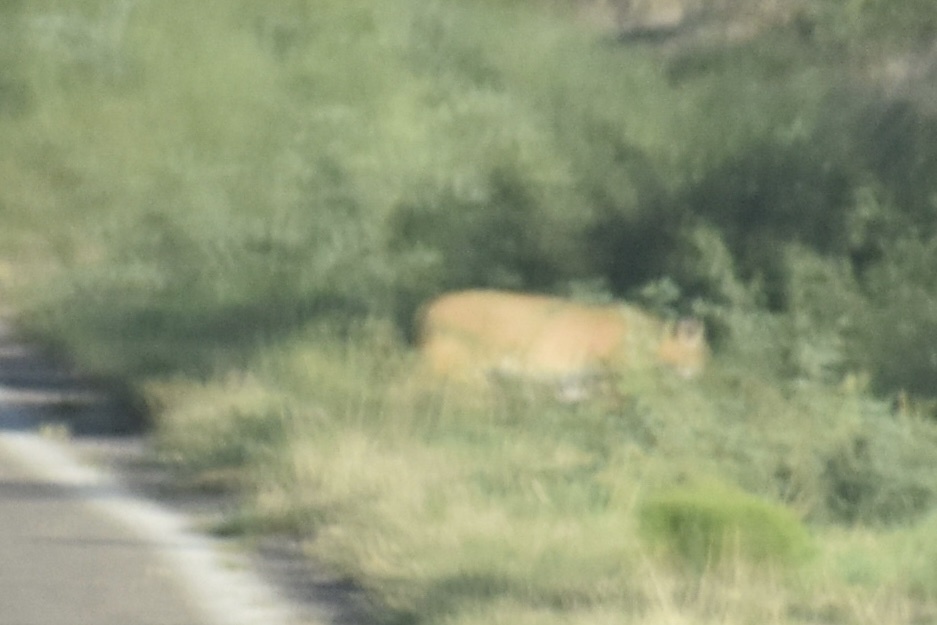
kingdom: Animalia
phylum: Chordata
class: Mammalia
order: Carnivora
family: Felidae
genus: Puma
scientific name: Puma concolor
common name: Puma
